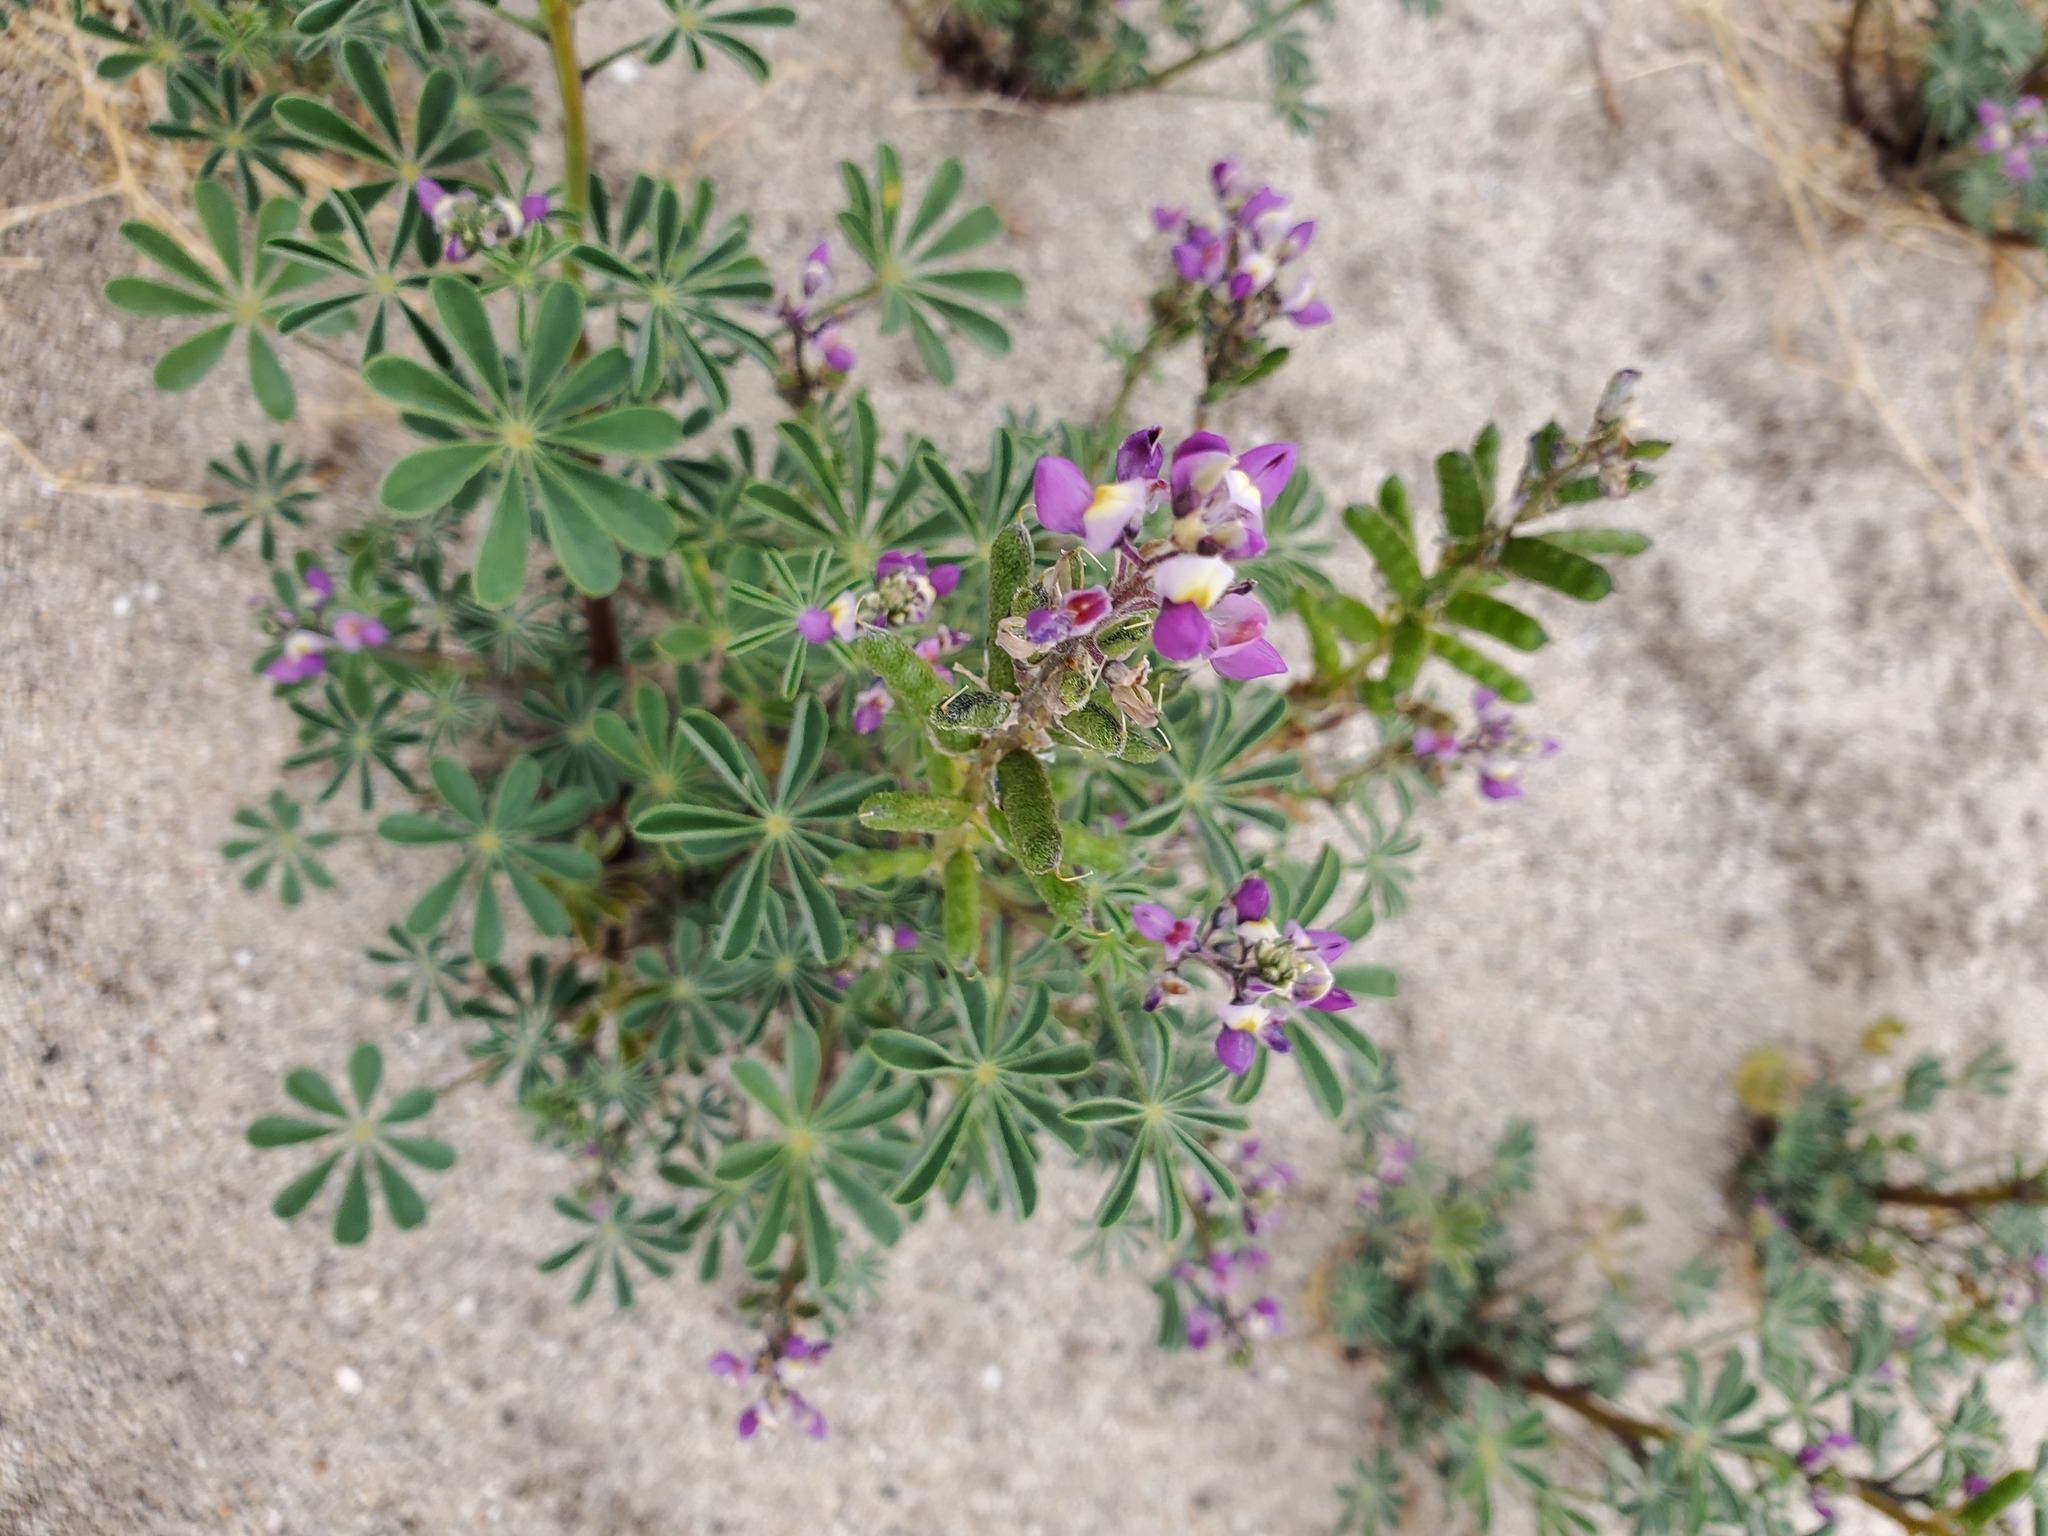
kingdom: Plantae
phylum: Tracheophyta
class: Magnoliopsida
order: Fabales
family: Fabaceae
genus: Lupinus
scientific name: Lupinus arizonicus
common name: Arizona lupine
